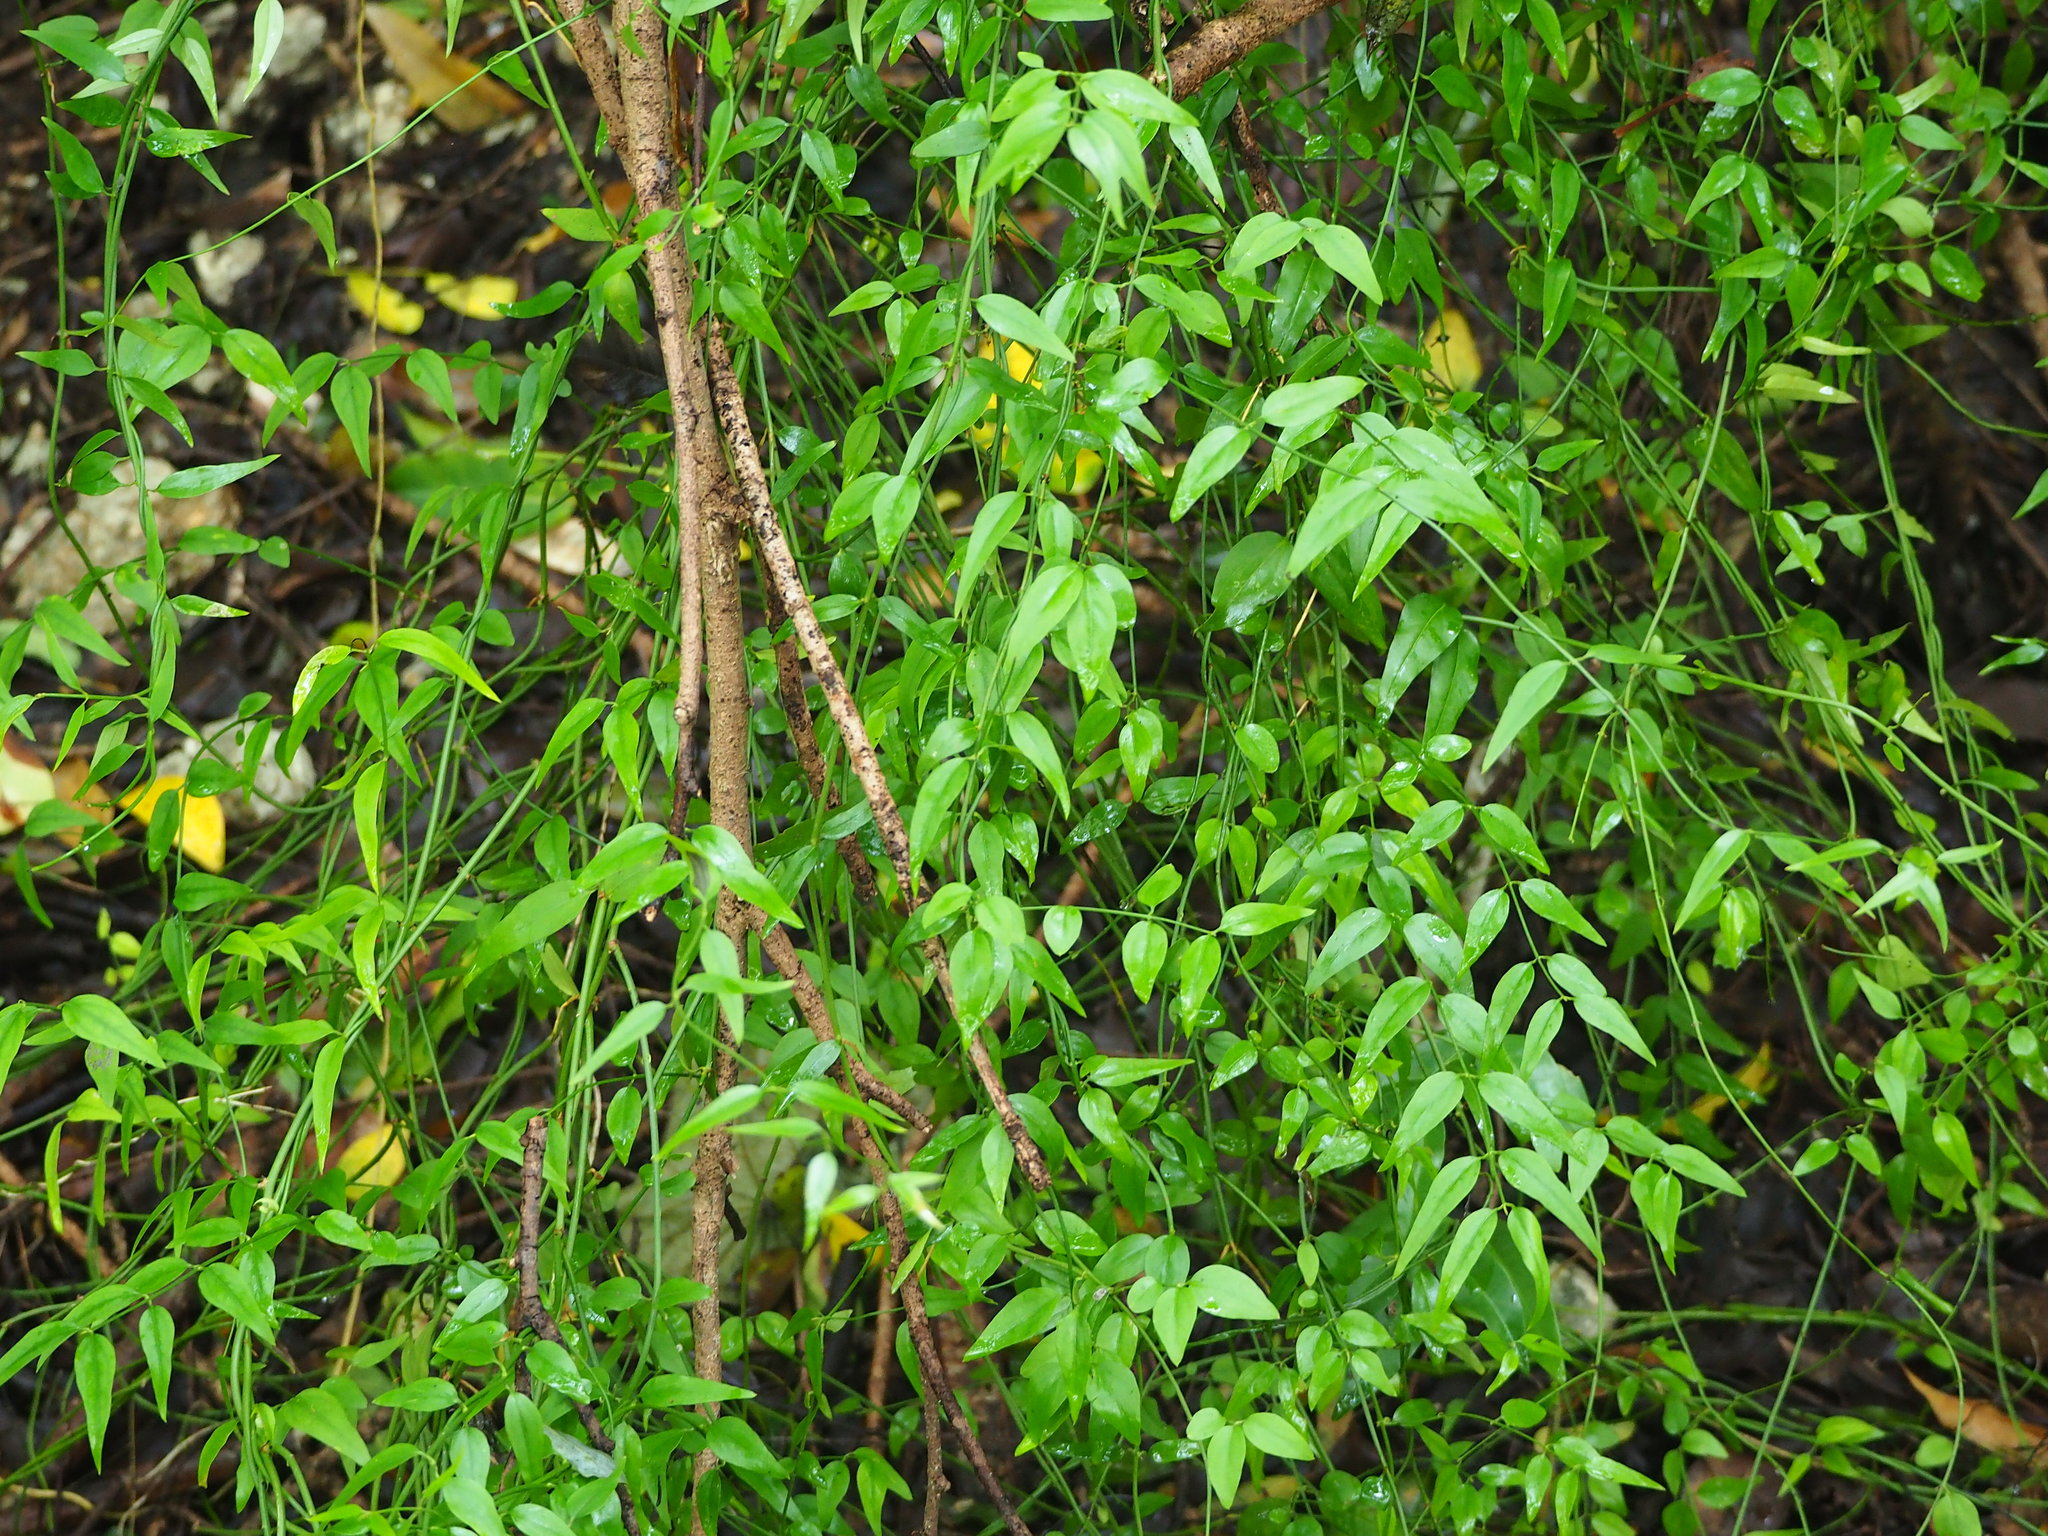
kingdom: Plantae
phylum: Tracheophyta
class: Magnoliopsida
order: Lamiales
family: Oleaceae
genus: Jasminum
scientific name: Jasminum nervosum
